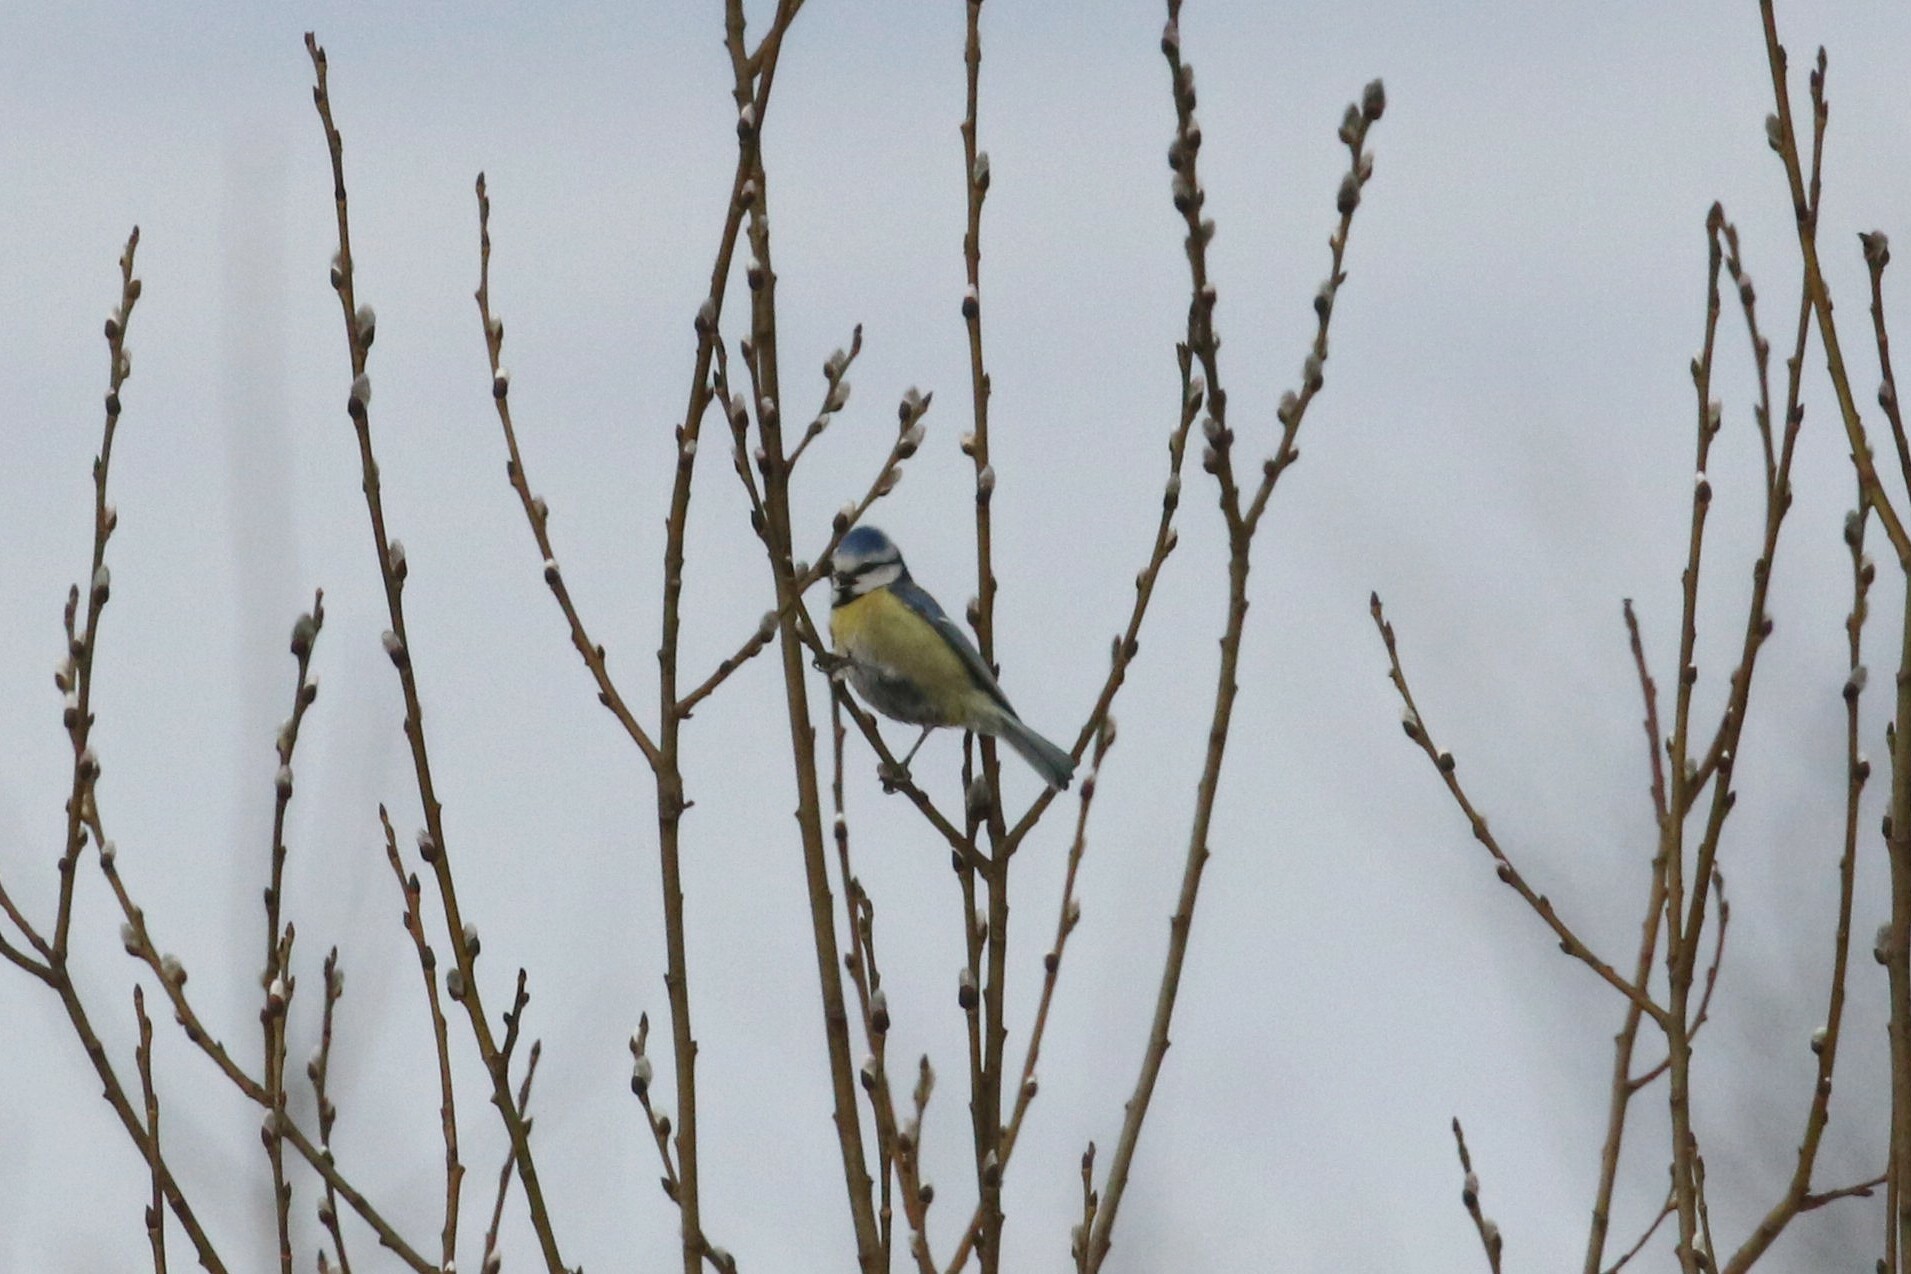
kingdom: Animalia
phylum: Chordata
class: Aves
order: Passeriformes
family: Paridae
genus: Cyanistes
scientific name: Cyanistes caeruleus
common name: Eurasian blue tit
